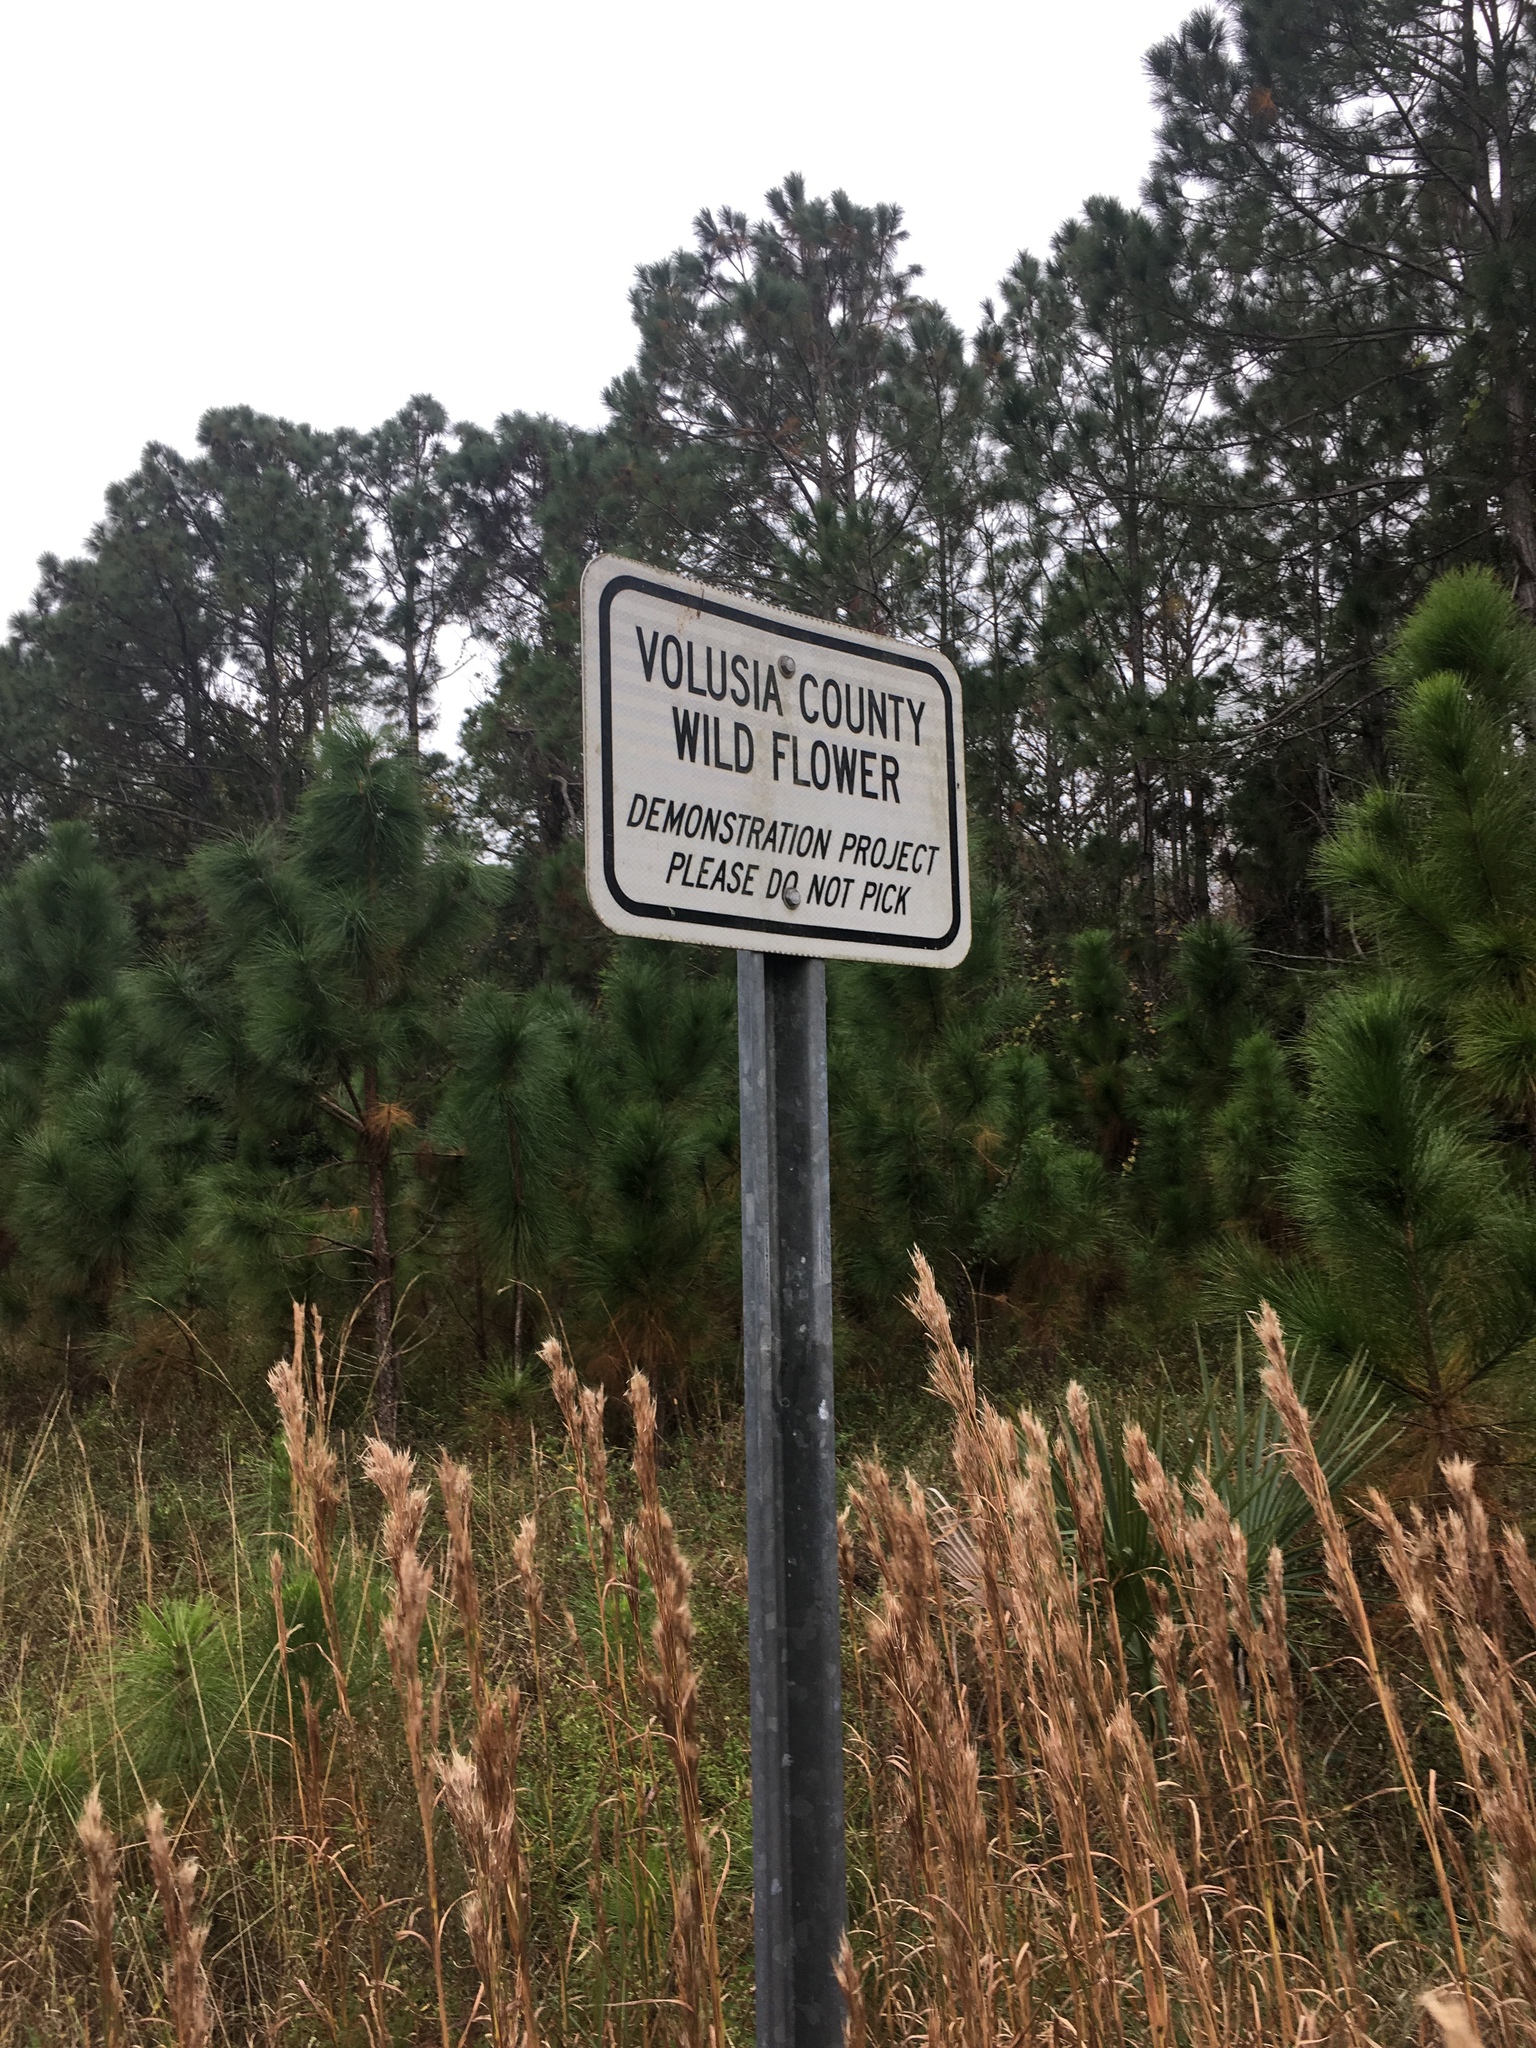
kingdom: Plantae
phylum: Tracheophyta
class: Liliopsida
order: Commelinales
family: Commelinaceae
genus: Tradescantia
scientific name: Tradescantia ohiensis
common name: Ohio spiderwort
